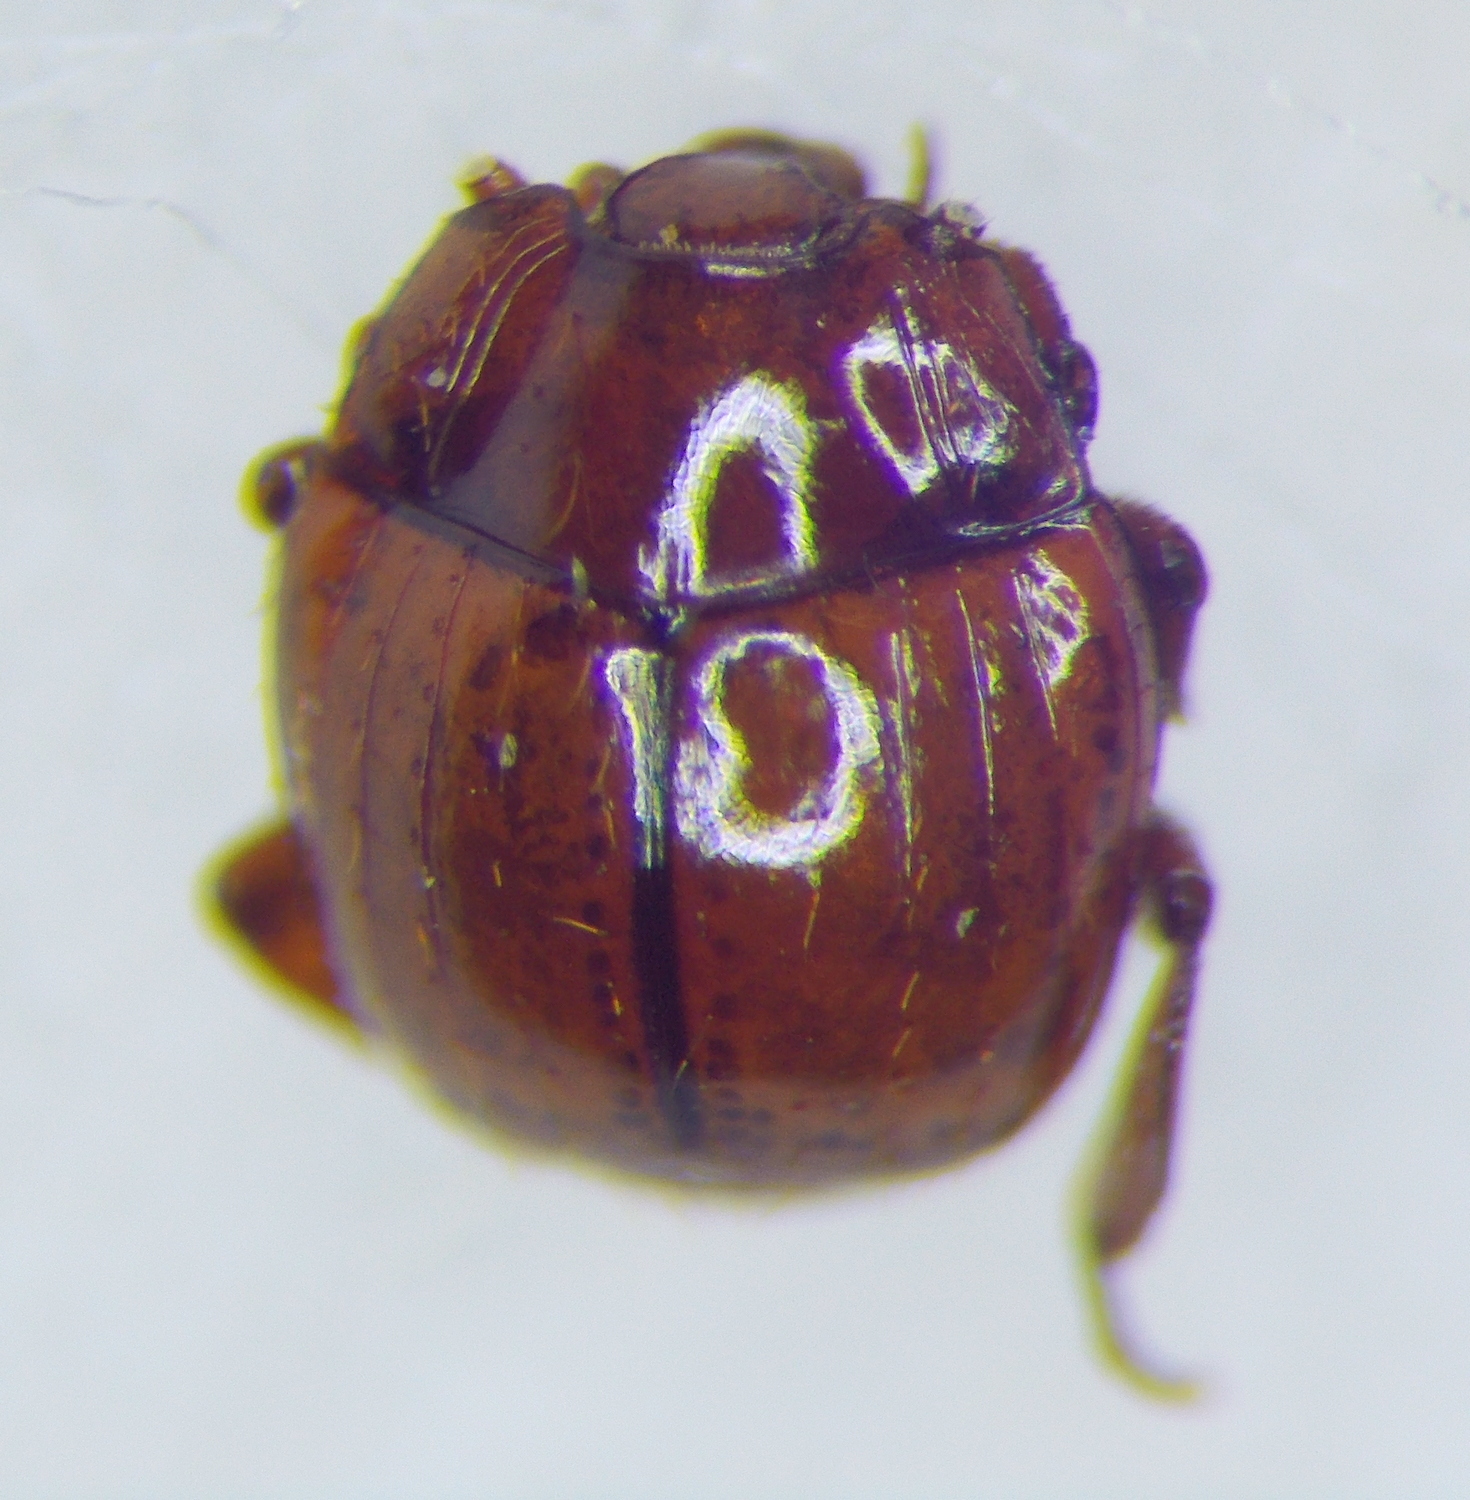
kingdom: Animalia
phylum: Arthropoda
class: Insecta
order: Coleoptera
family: Histeridae
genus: Haeterius
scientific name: Haeterius ferrugineus
